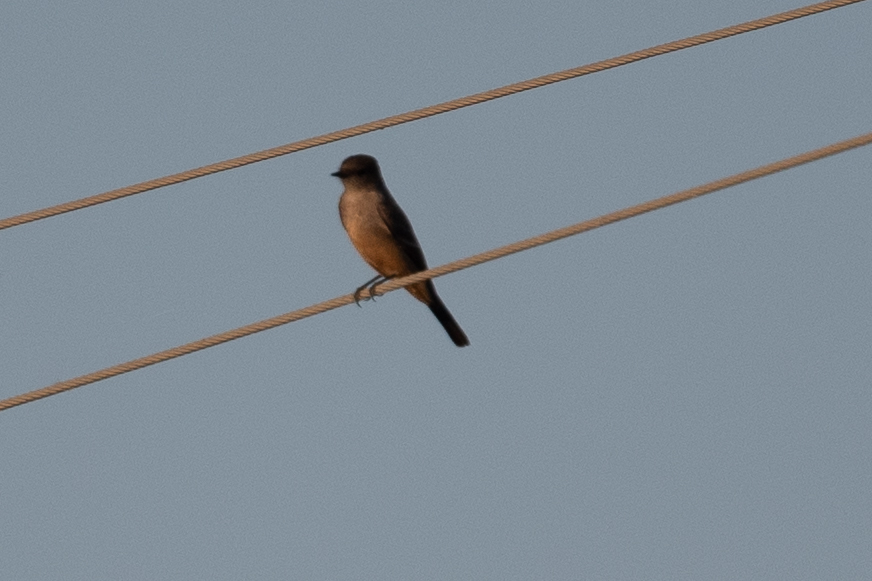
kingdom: Animalia
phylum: Chordata
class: Aves
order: Passeriformes
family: Tyrannidae
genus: Sayornis
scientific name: Sayornis saya
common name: Say's phoebe
